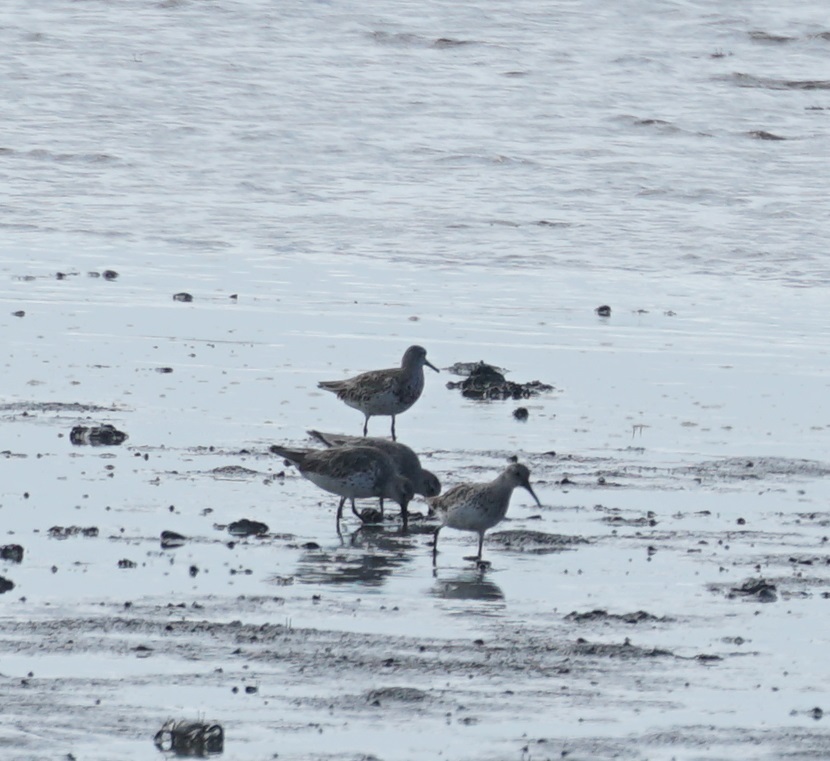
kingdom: Animalia
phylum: Chordata
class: Aves
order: Charadriiformes
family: Scolopacidae
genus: Calidris
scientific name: Calidris tenuirostris
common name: Great knot
